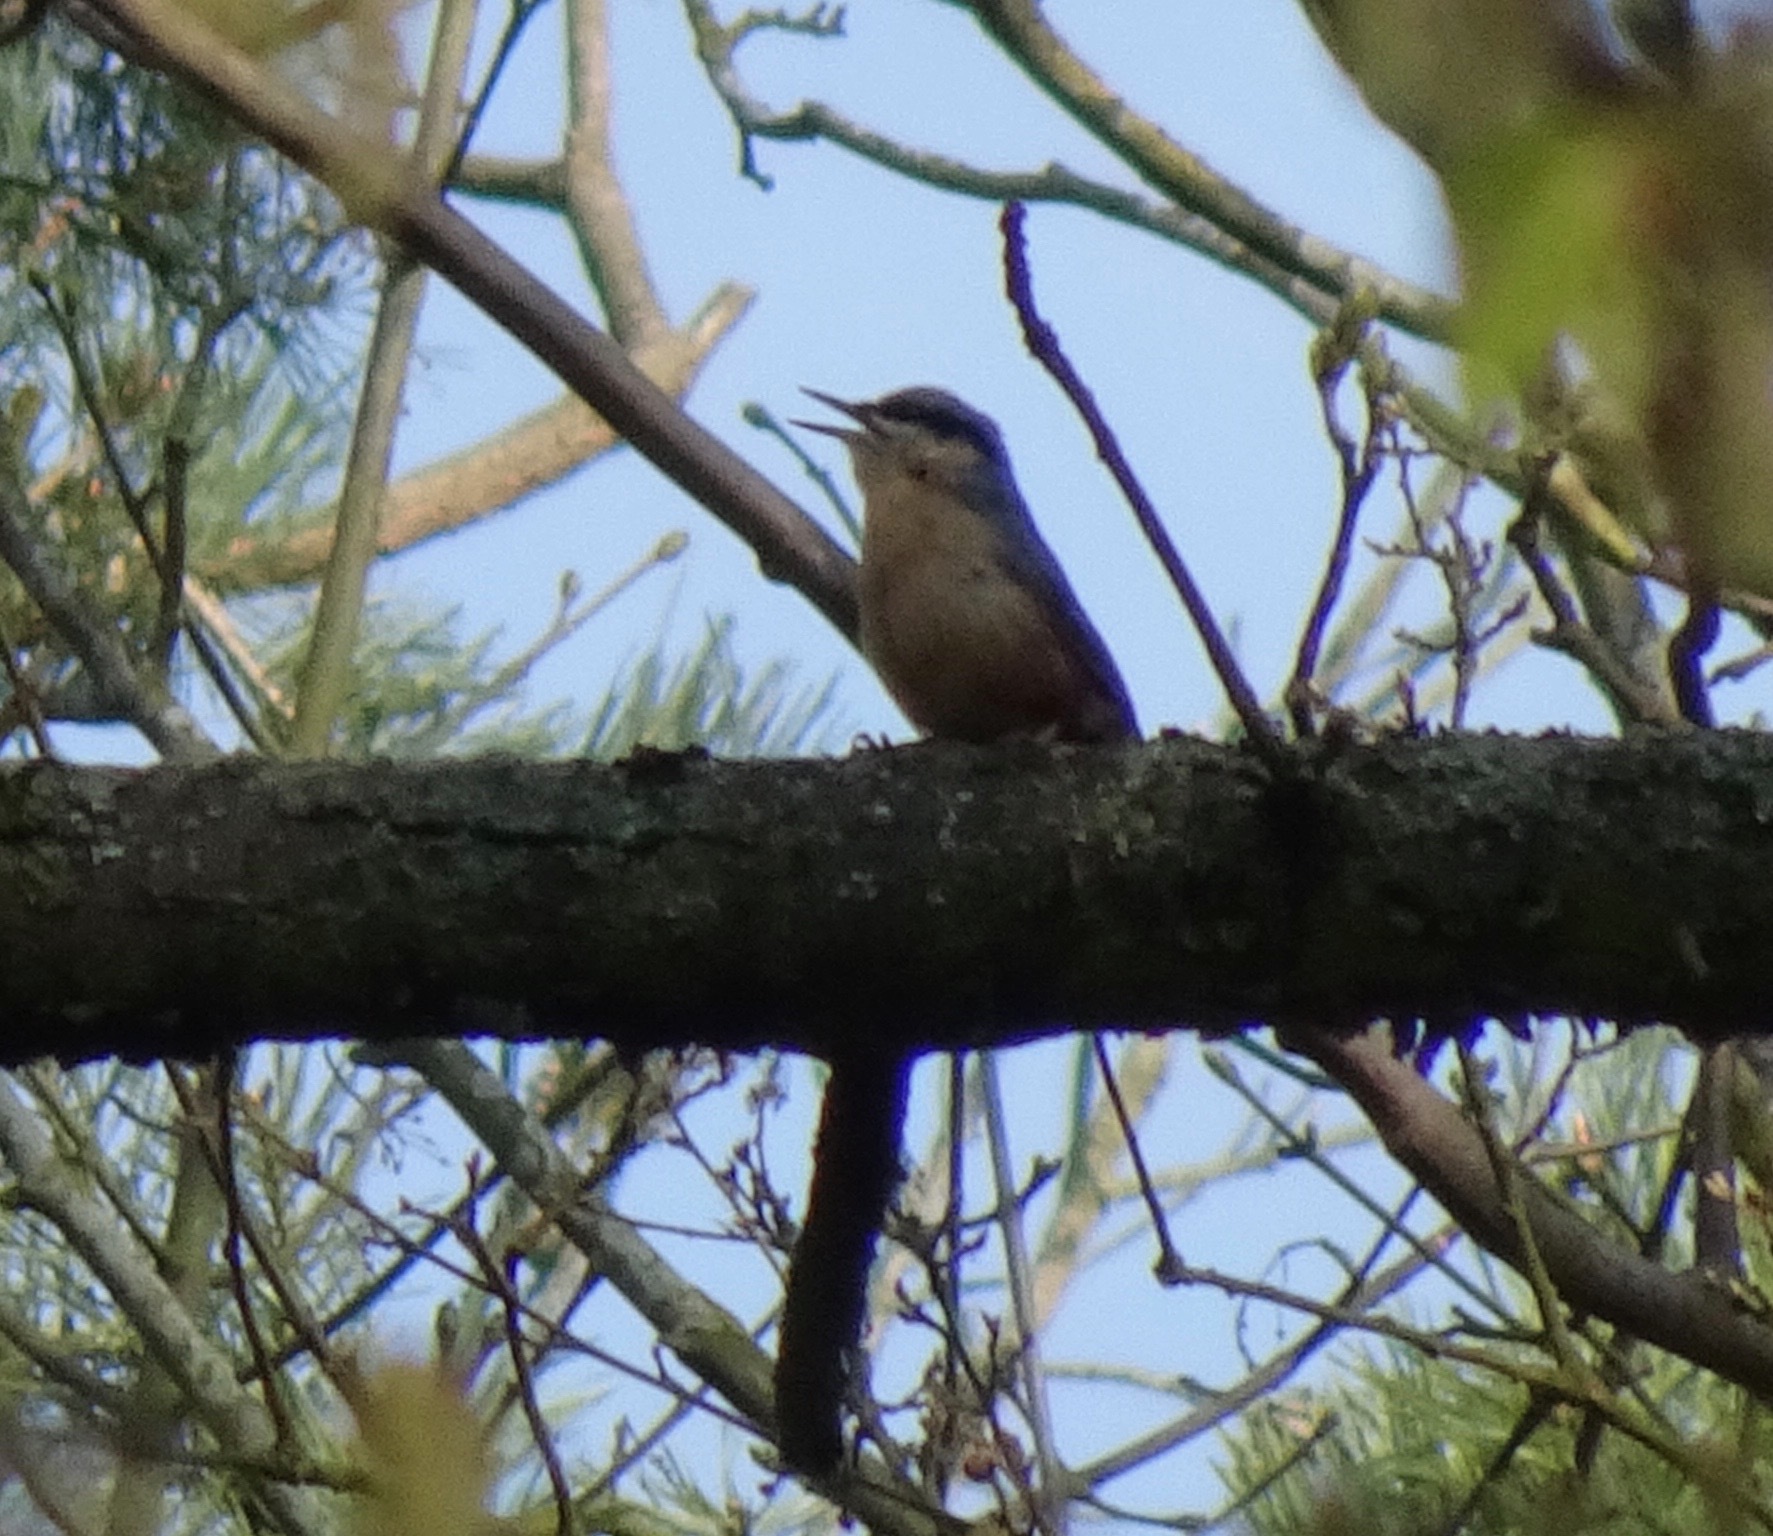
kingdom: Animalia
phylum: Chordata
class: Aves
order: Passeriformes
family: Sittidae
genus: Sitta
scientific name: Sitta europaea
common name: Eurasian nuthatch
